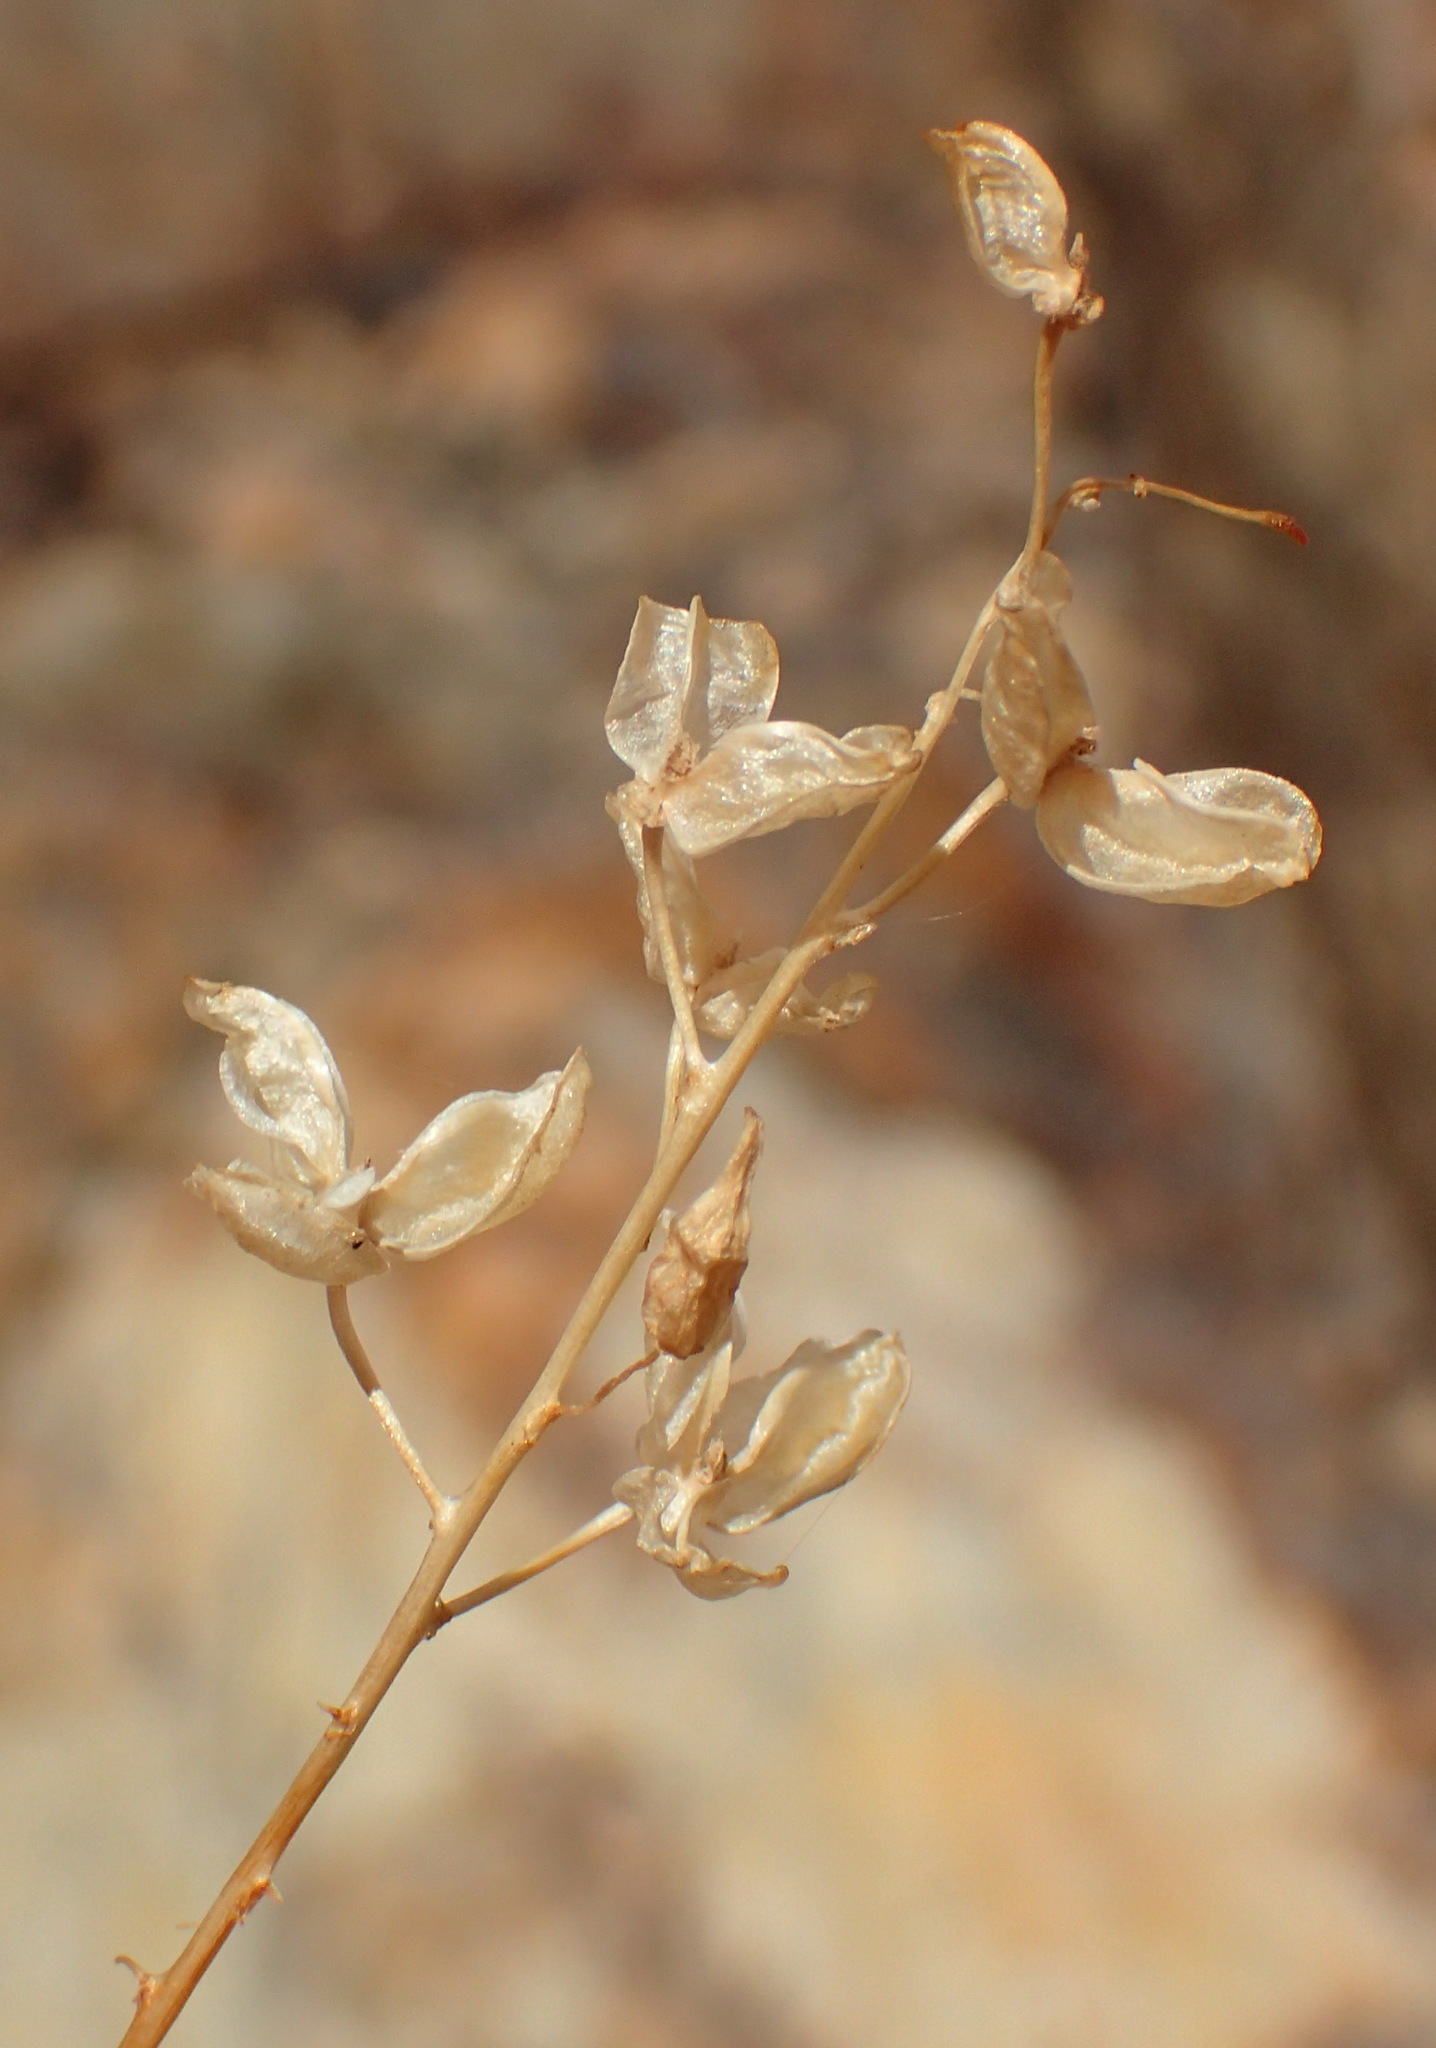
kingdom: Plantae
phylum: Tracheophyta
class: Liliopsida
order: Asparagales
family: Asparagaceae
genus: Drimia
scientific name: Drimia platyphylla
